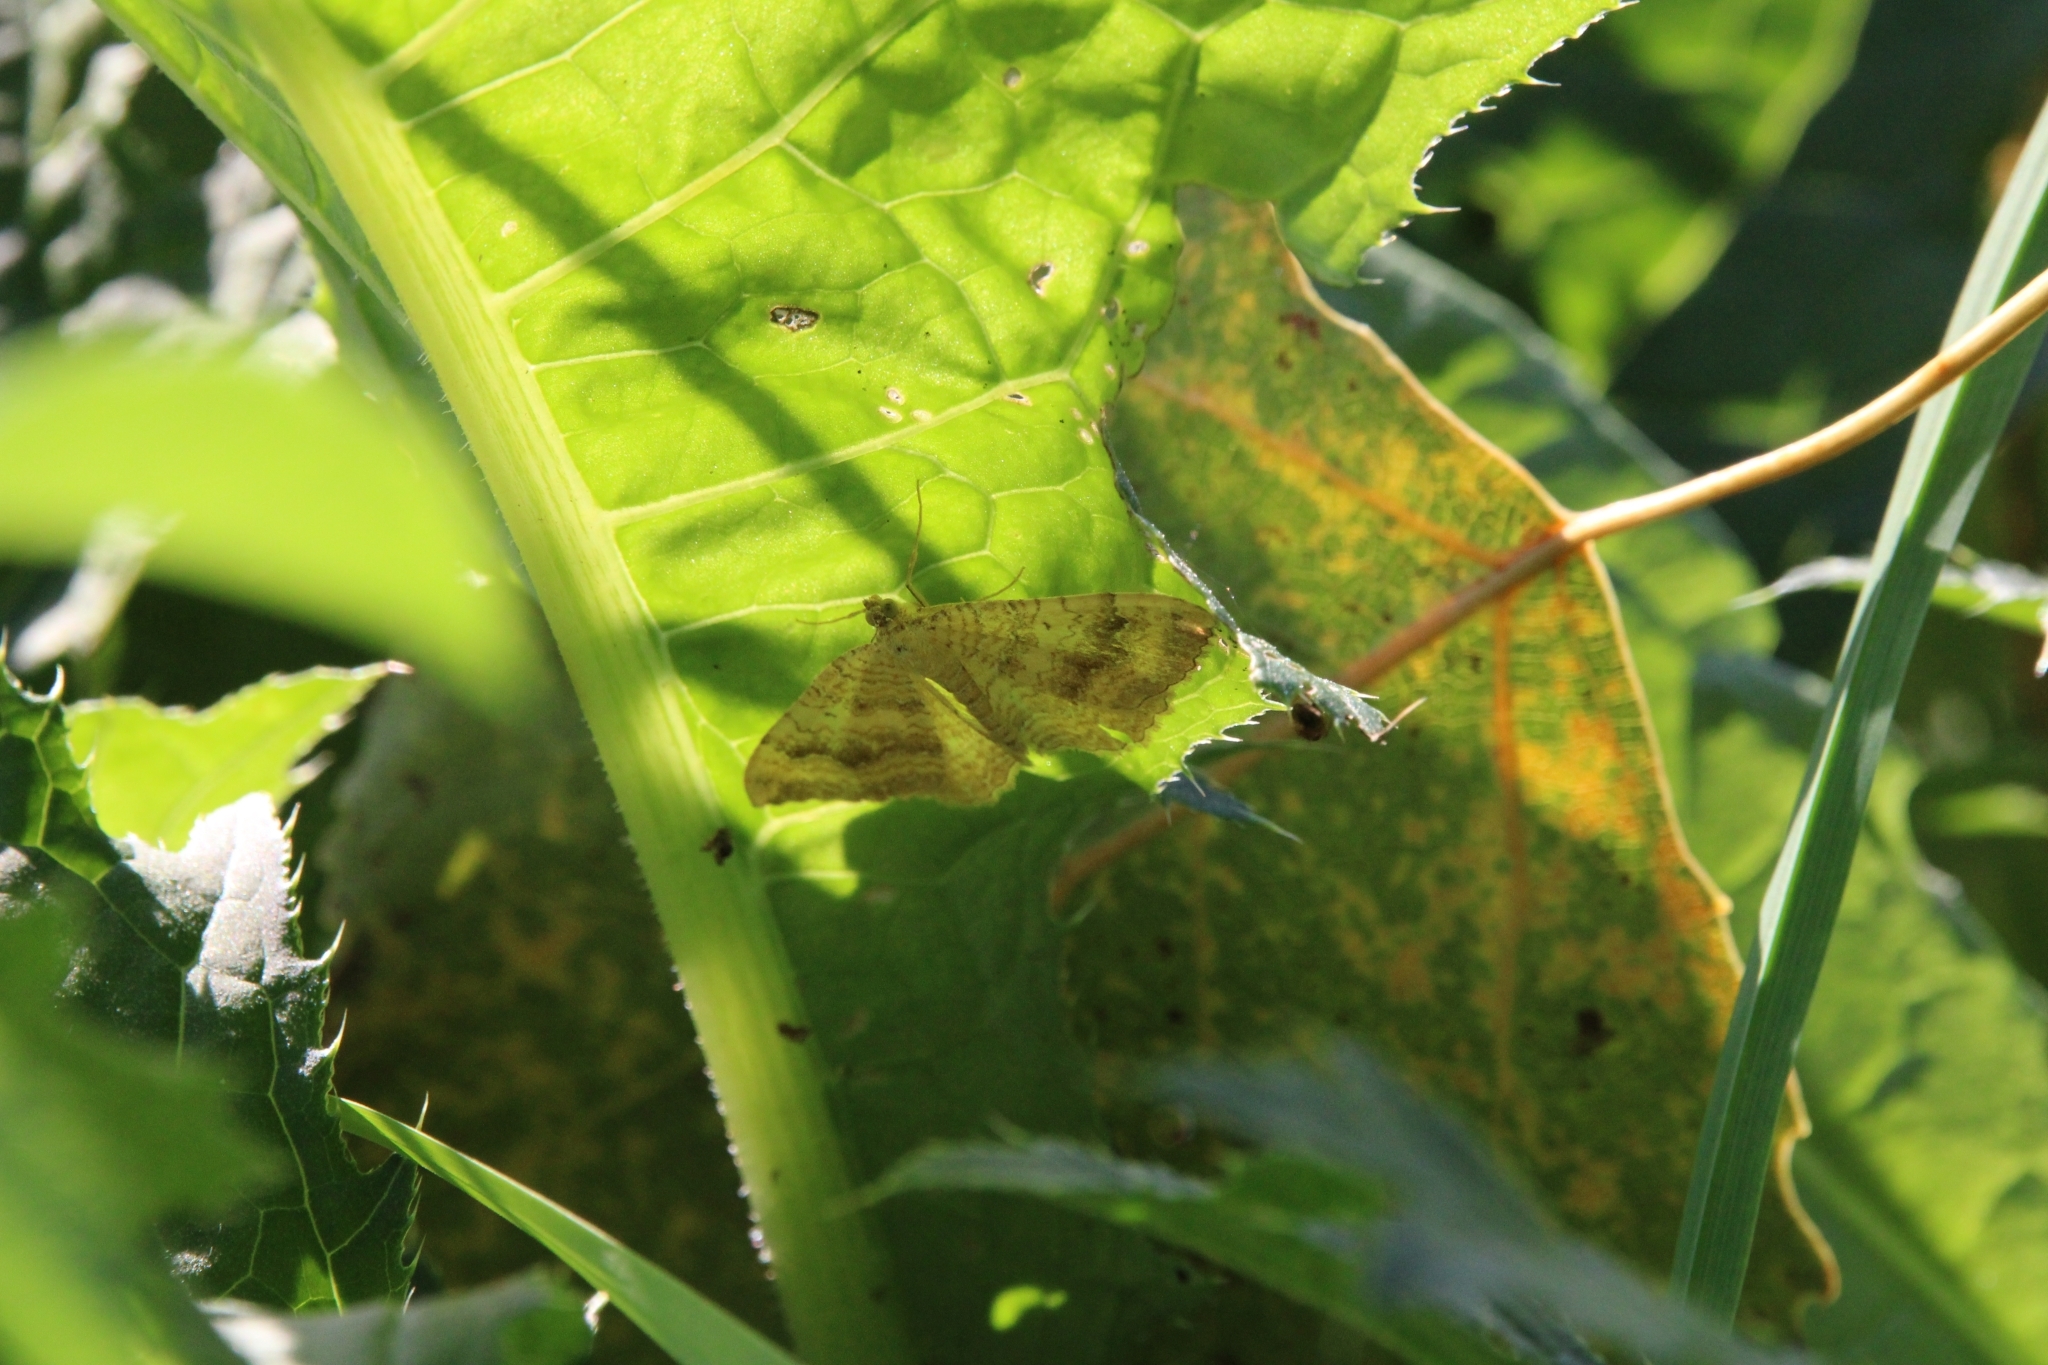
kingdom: Animalia
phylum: Arthropoda
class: Insecta
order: Lepidoptera
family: Geometridae
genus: Camptogramma
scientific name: Camptogramma bilineata
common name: Yellow shell
